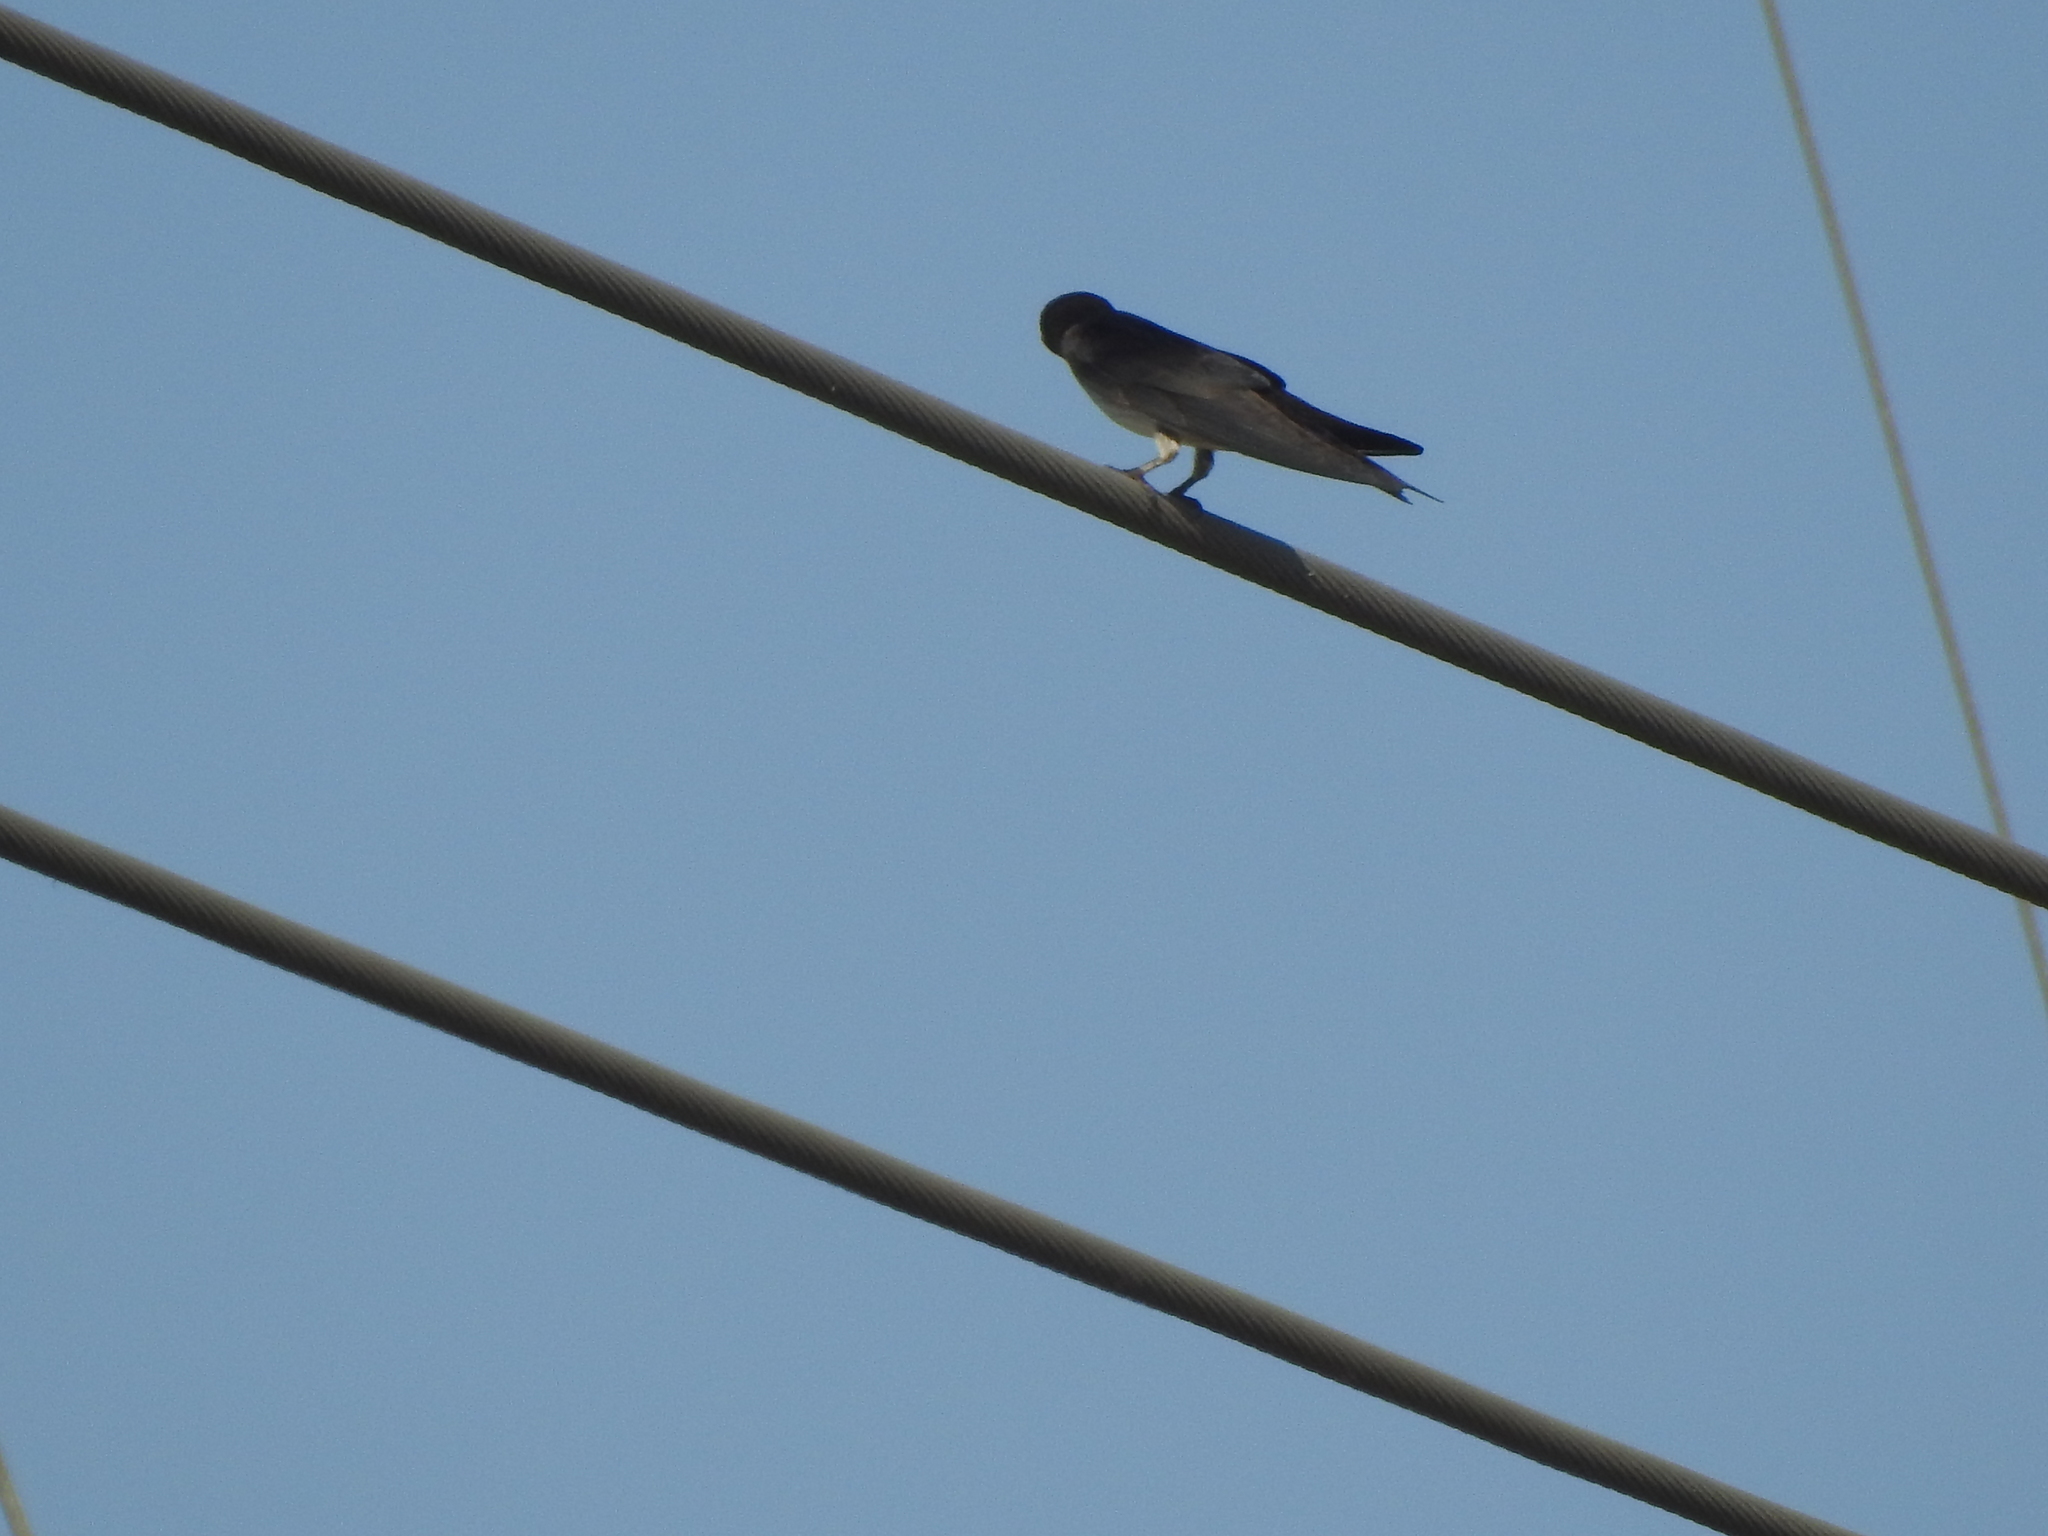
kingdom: Animalia
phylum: Chordata
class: Aves
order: Passeriformes
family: Hirundinidae
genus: Progne
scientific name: Progne chalybea
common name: Grey-breasted martin
